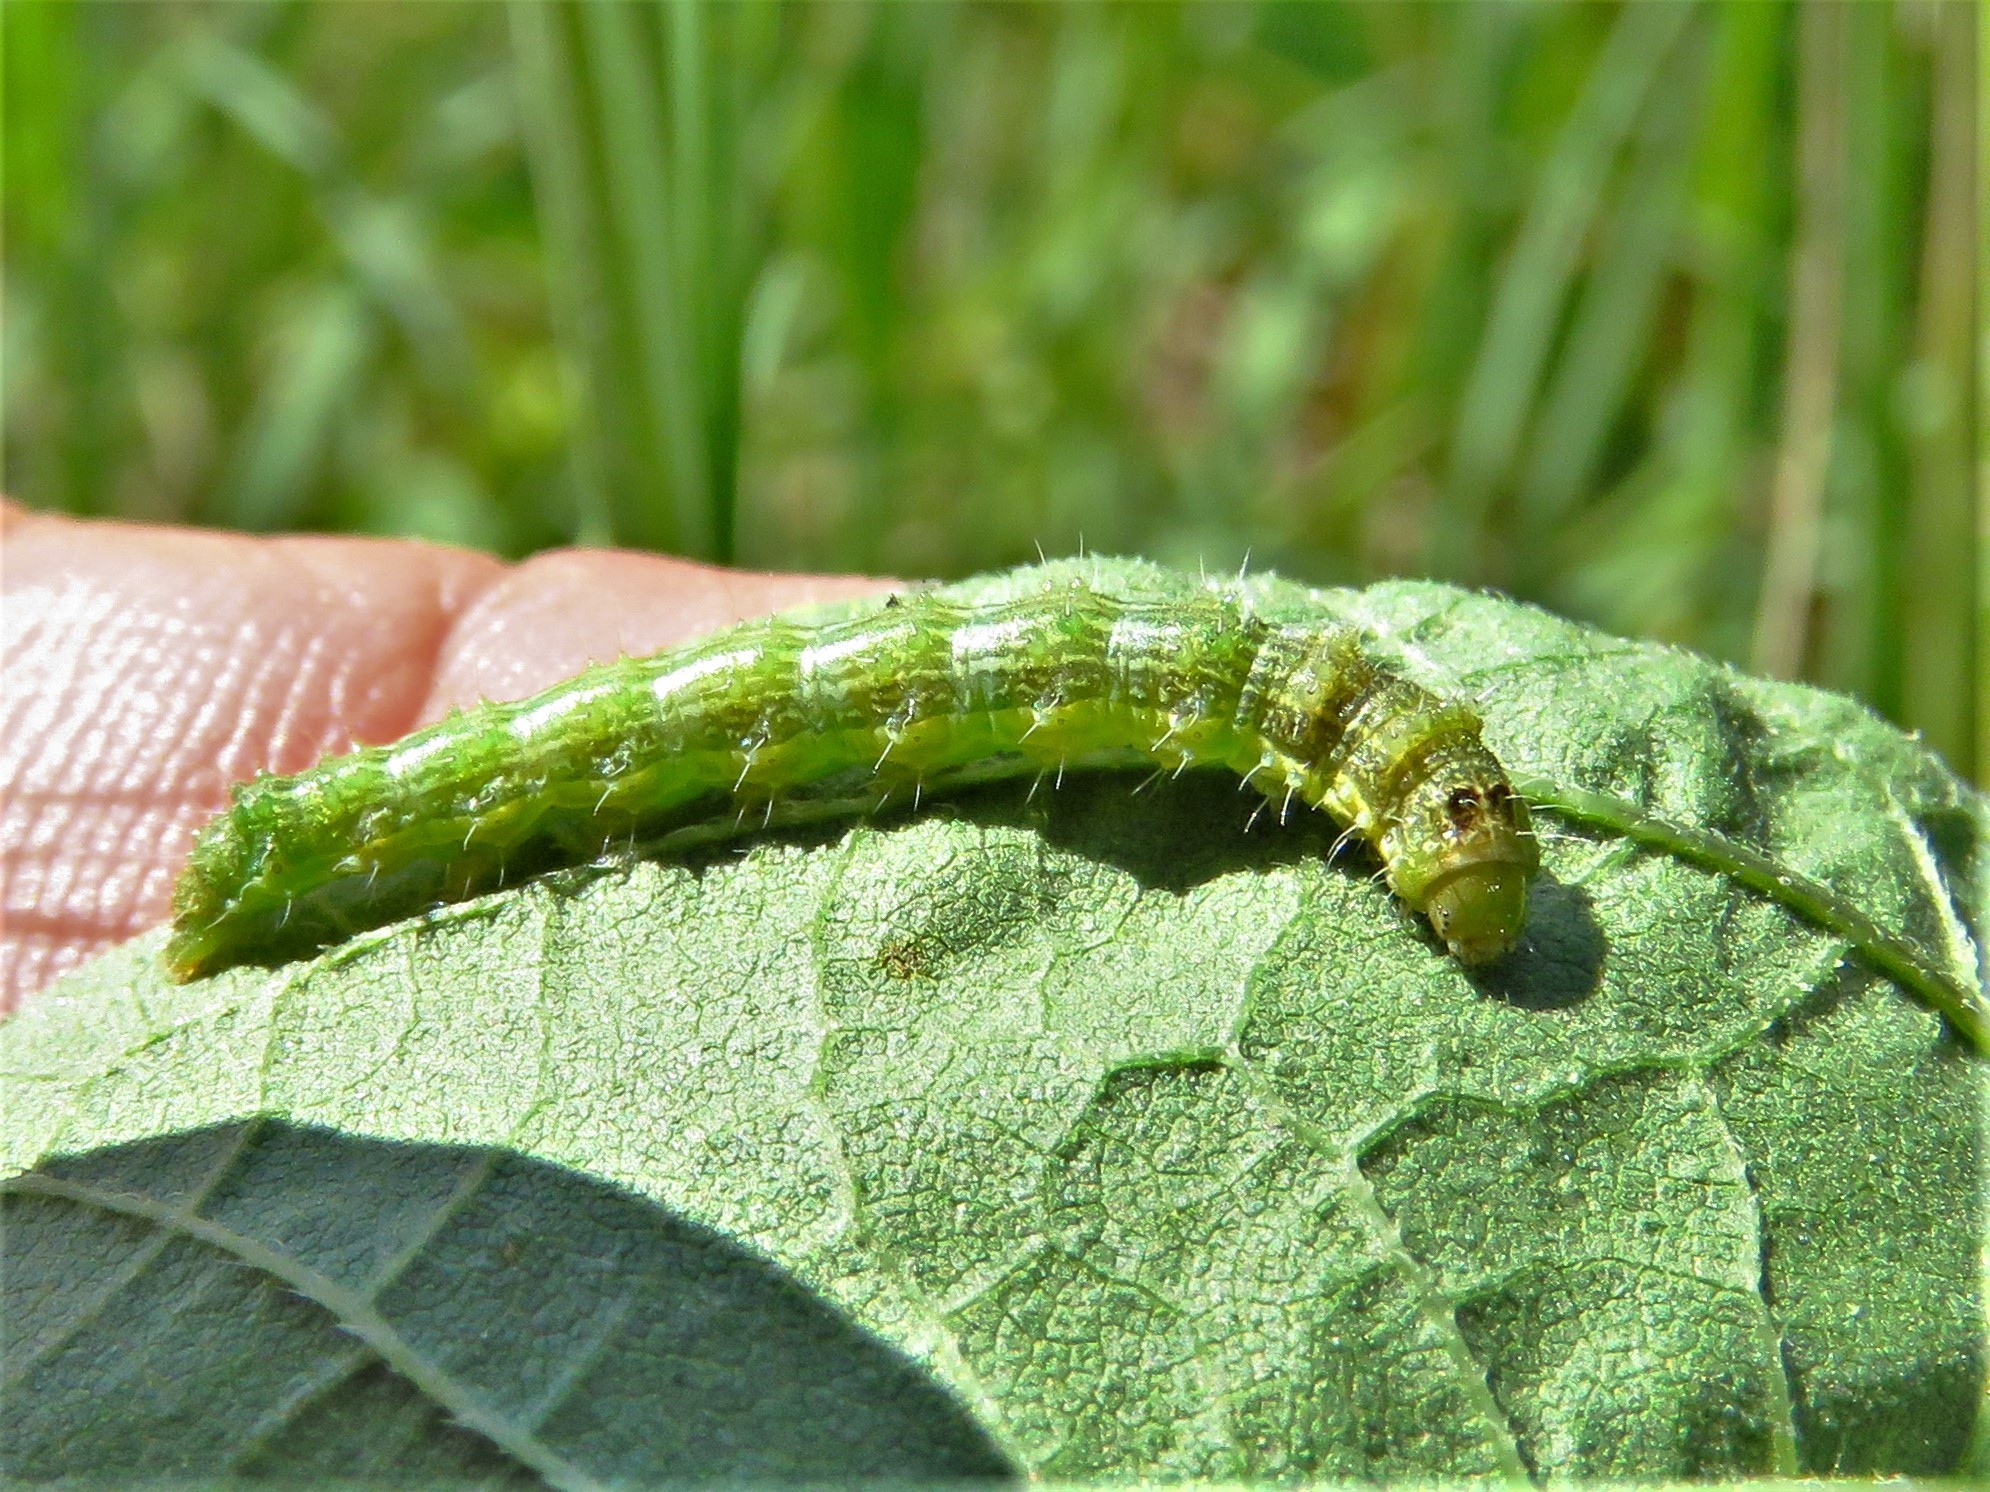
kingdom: Animalia
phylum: Arthropoda
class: Insecta
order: Lepidoptera
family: Noctuidae
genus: Schinia
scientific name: Schinia gracilenta
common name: Slender flower moth
